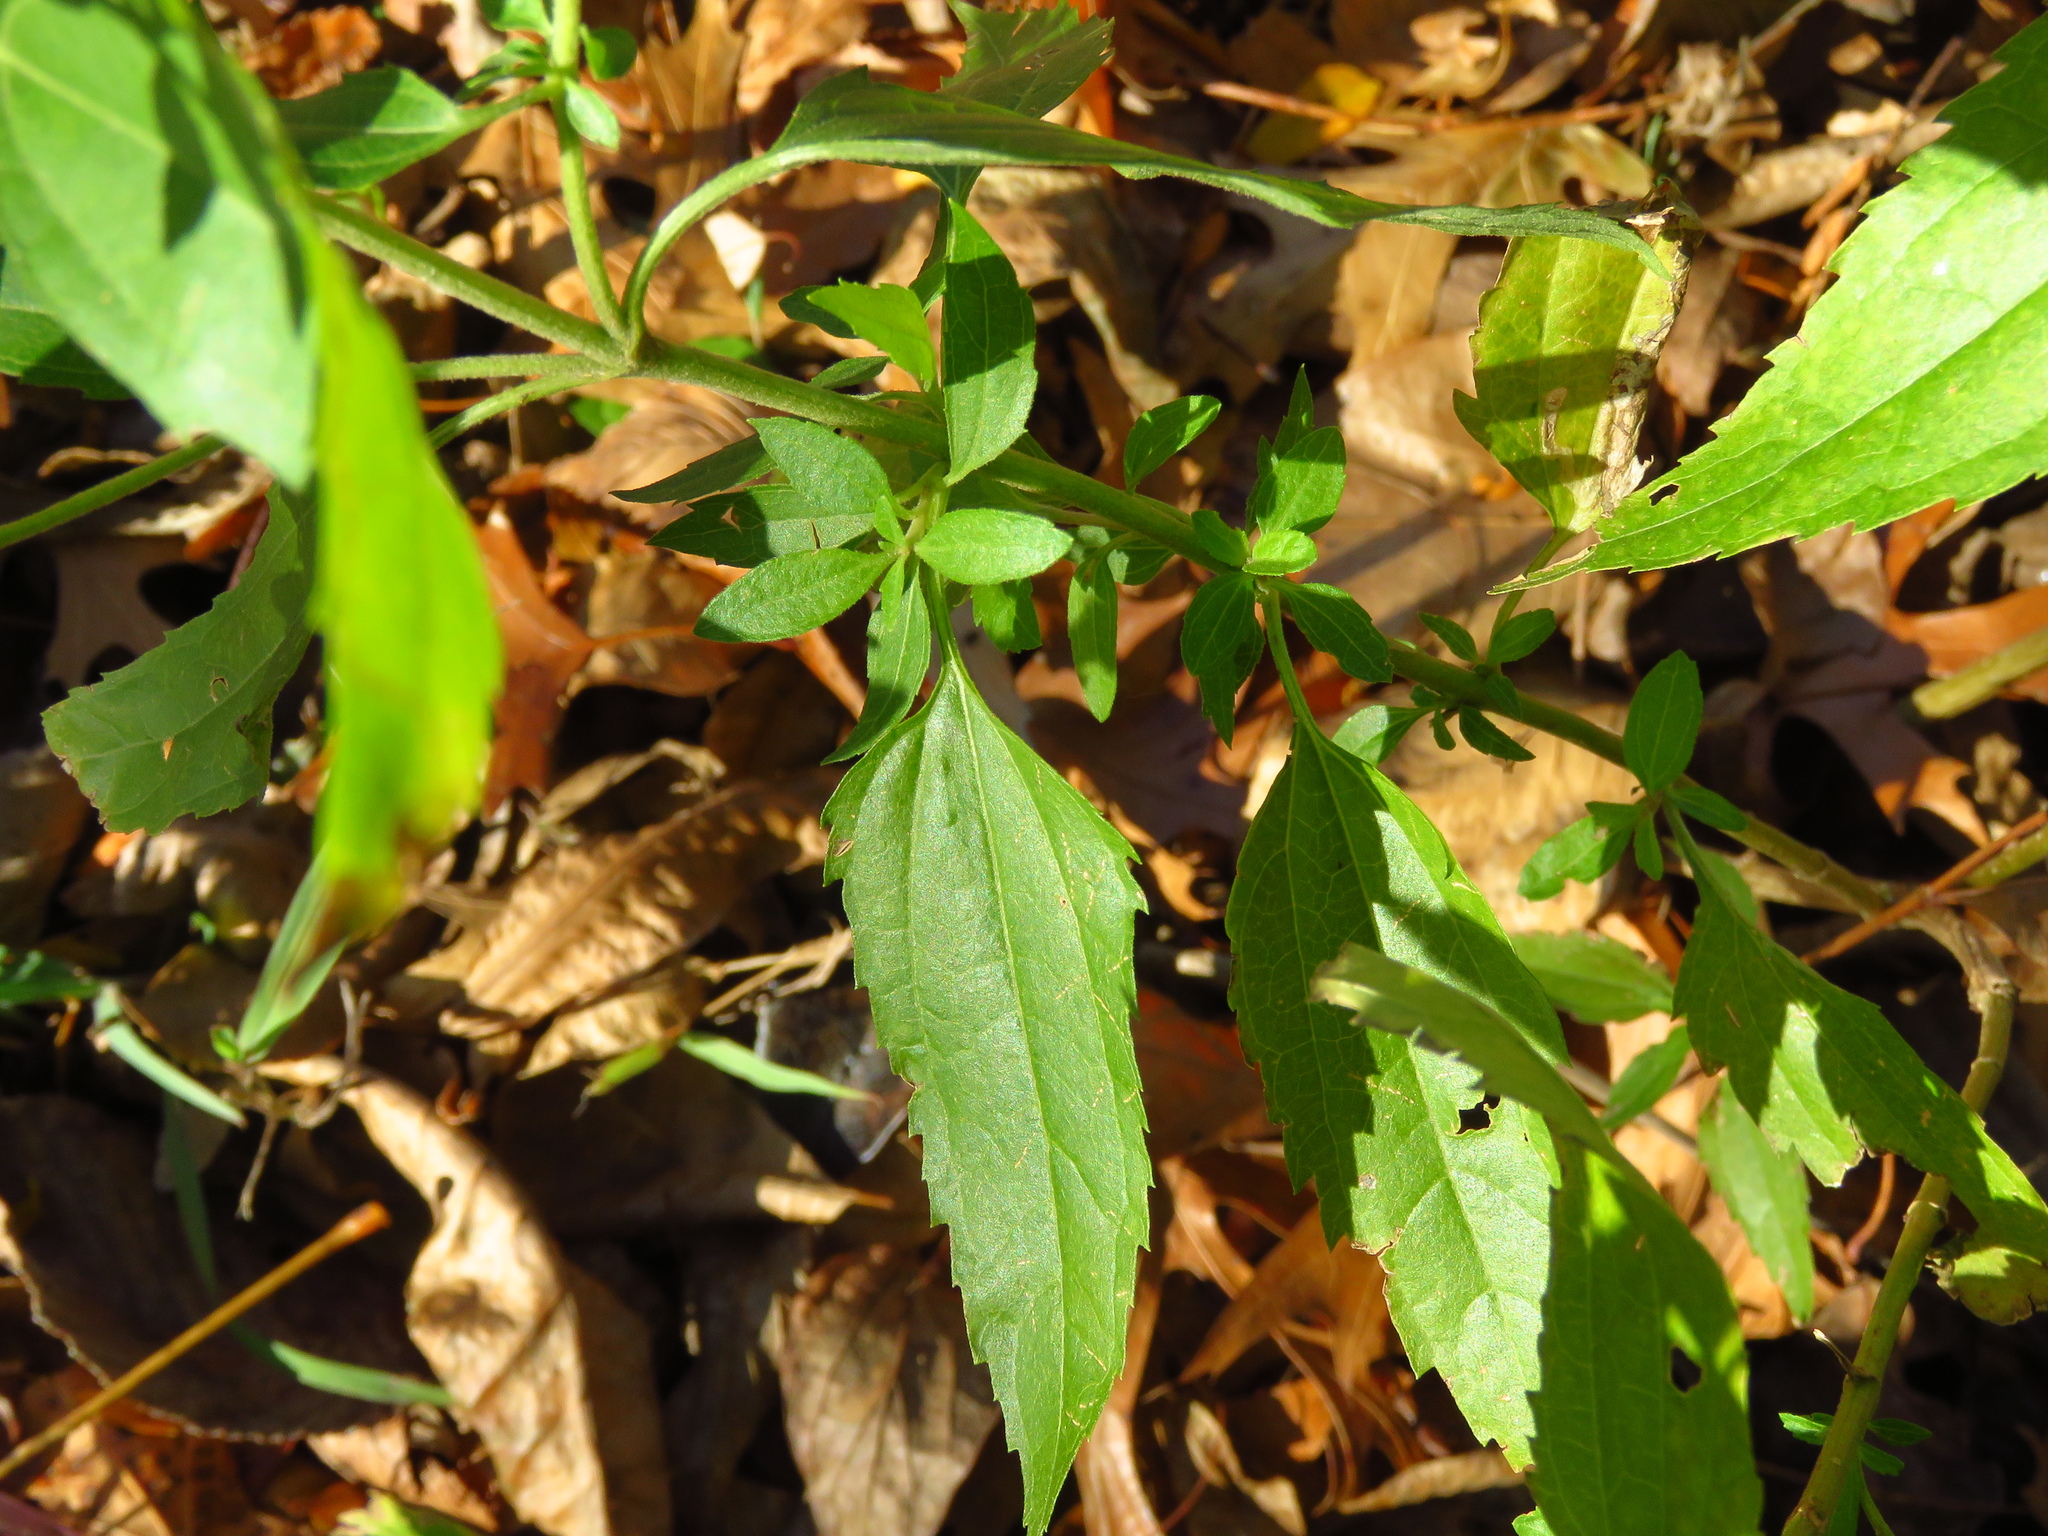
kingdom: Plantae
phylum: Tracheophyta
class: Magnoliopsida
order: Asterales
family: Asteraceae
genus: Eupatorium
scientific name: Eupatorium serotinum
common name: Late boneset
